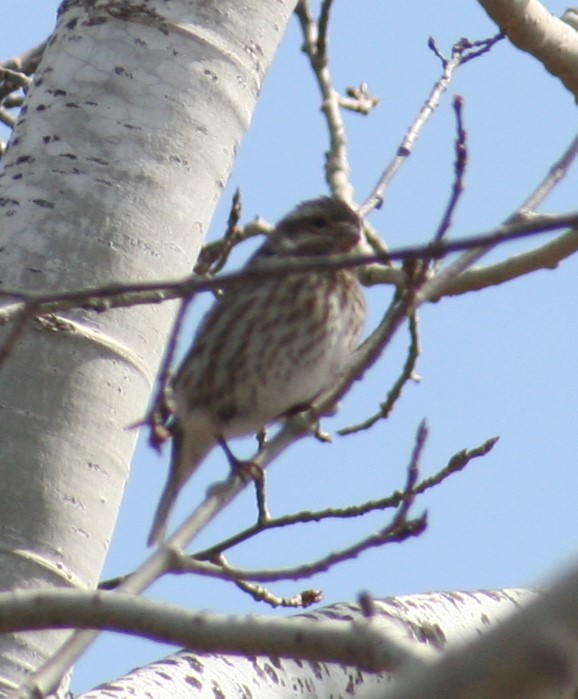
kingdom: Animalia
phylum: Chordata
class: Aves
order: Passeriformes
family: Fringillidae
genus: Haemorhous
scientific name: Haemorhous purpureus
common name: Purple finch
